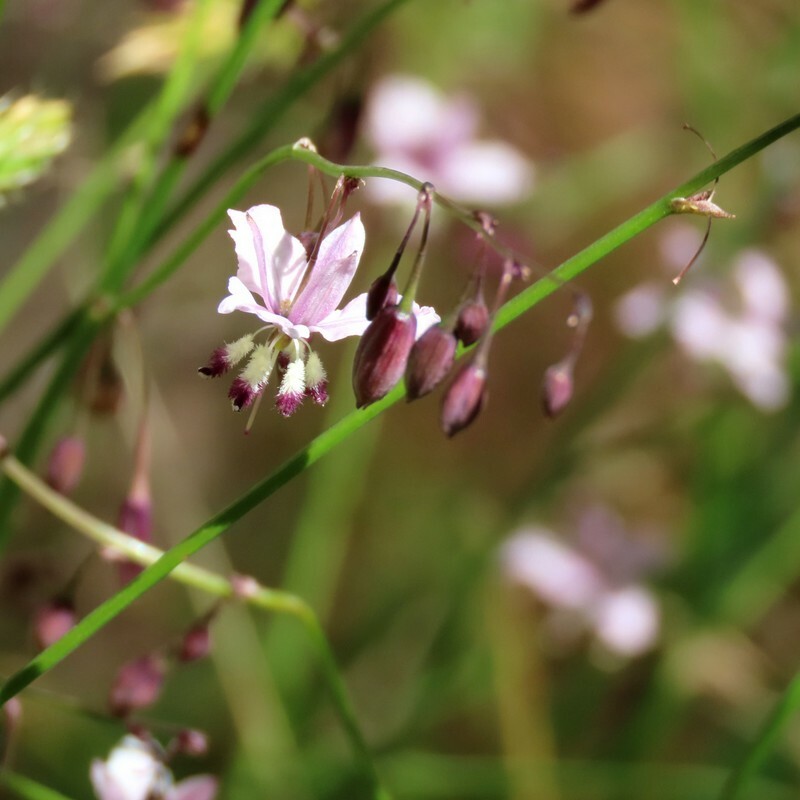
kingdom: Plantae
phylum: Tracheophyta
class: Liliopsida
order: Asparagales
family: Asparagaceae
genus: Arthropodium
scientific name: Arthropodium milleflorum
